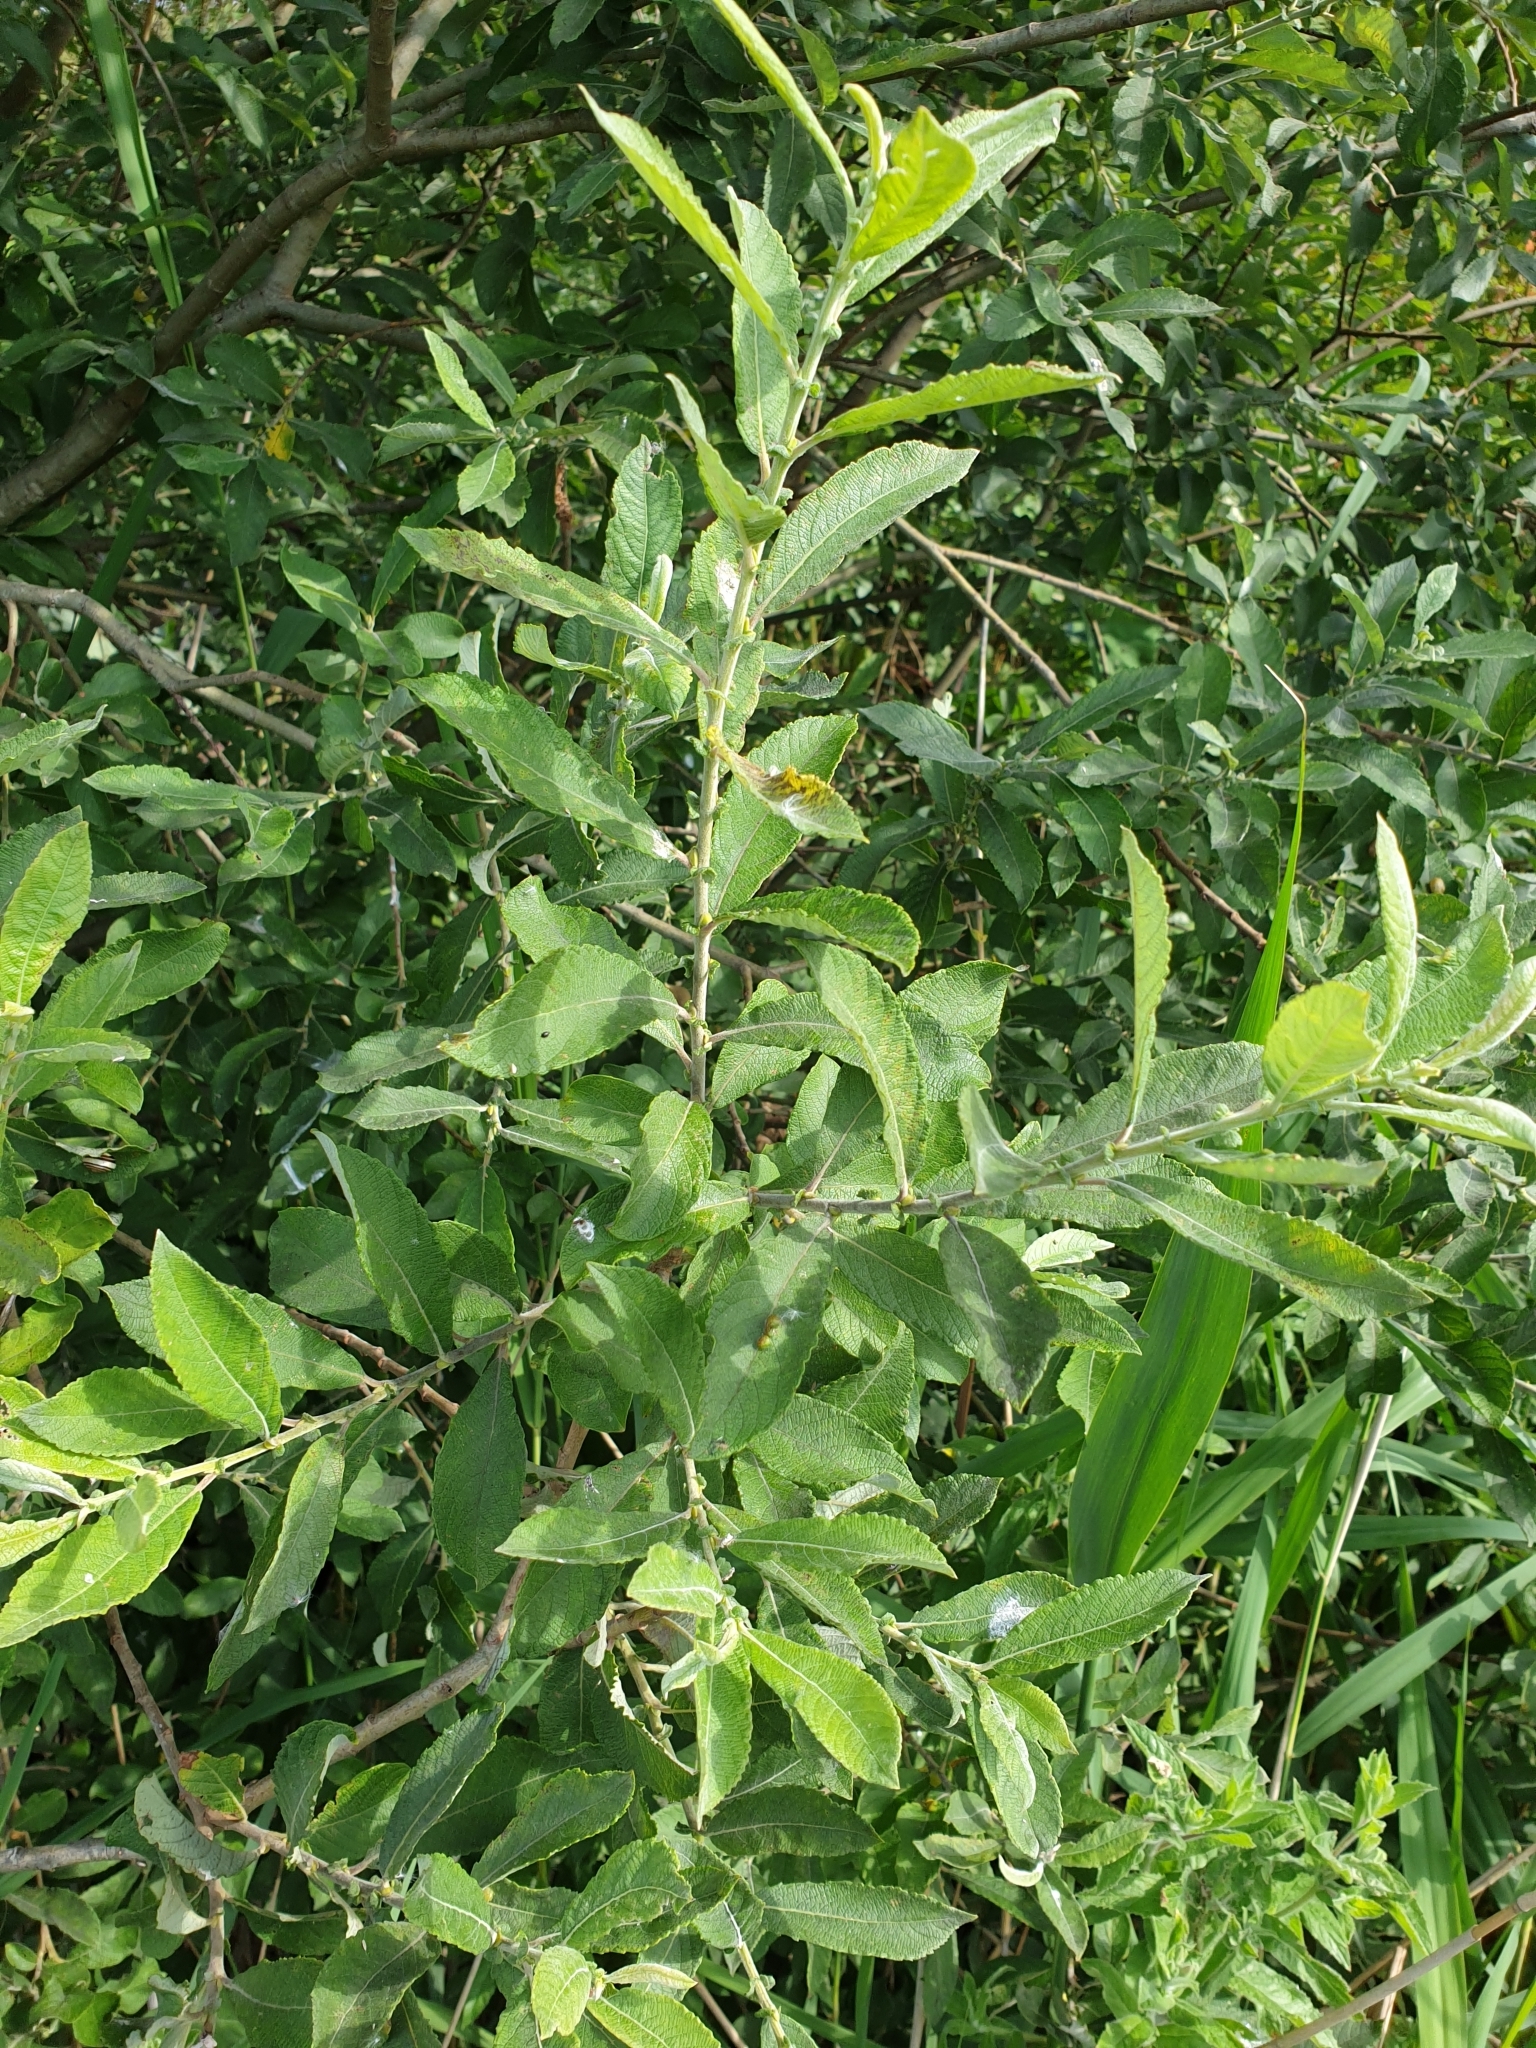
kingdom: Plantae
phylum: Tracheophyta
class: Magnoliopsida
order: Malpighiales
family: Salicaceae
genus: Salix
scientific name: Salix cinerea
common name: Common sallow
